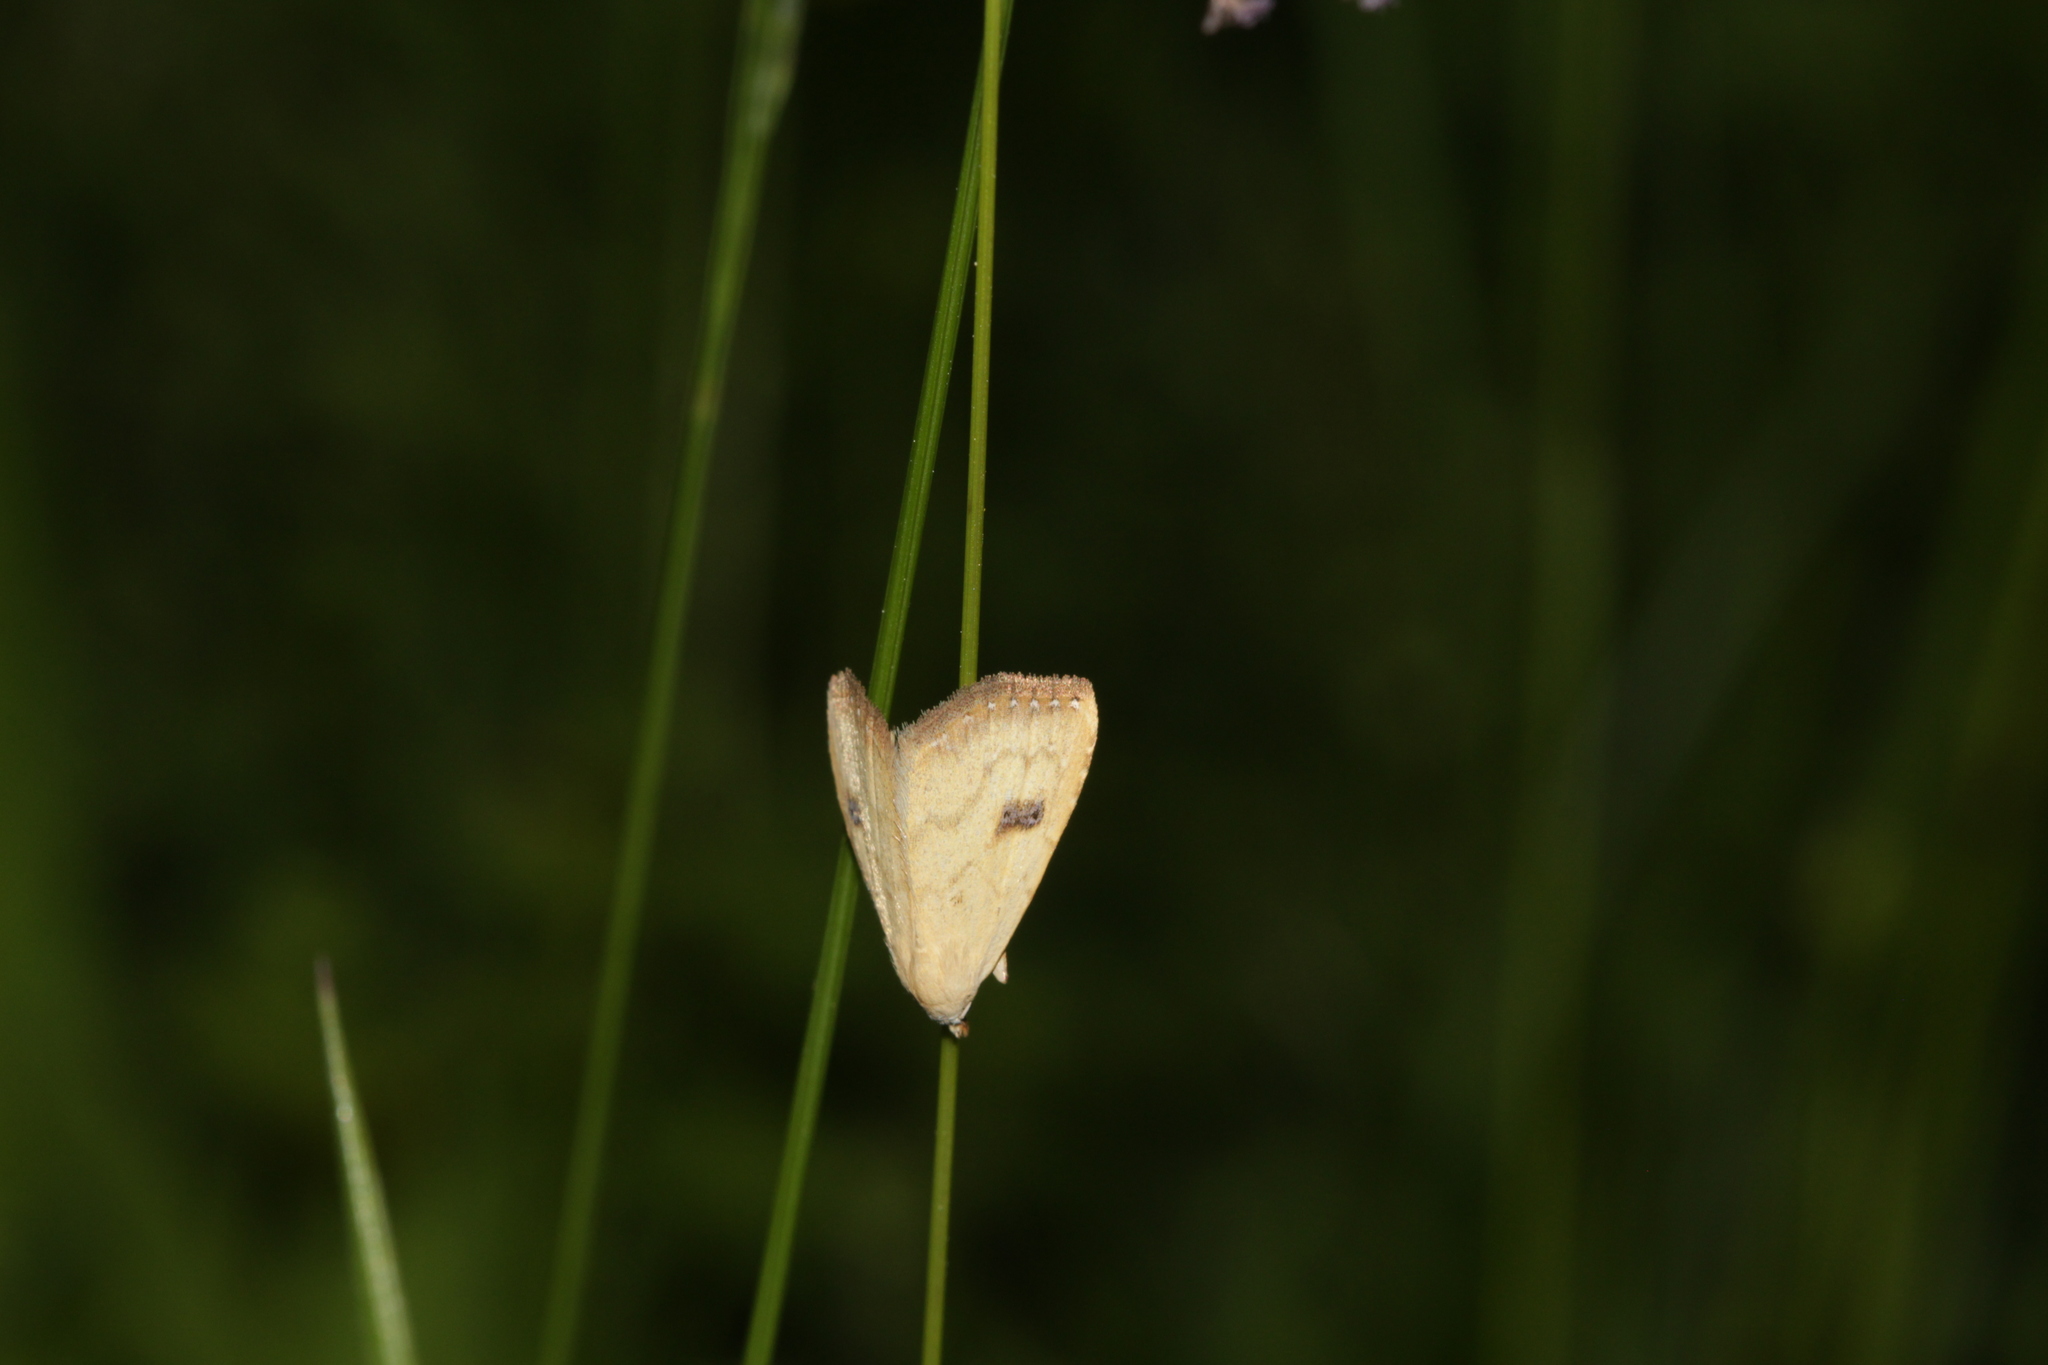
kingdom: Animalia
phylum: Arthropoda
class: Insecta
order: Lepidoptera
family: Erebidae
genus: Rivula
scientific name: Rivula sericealis
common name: Straw dot
